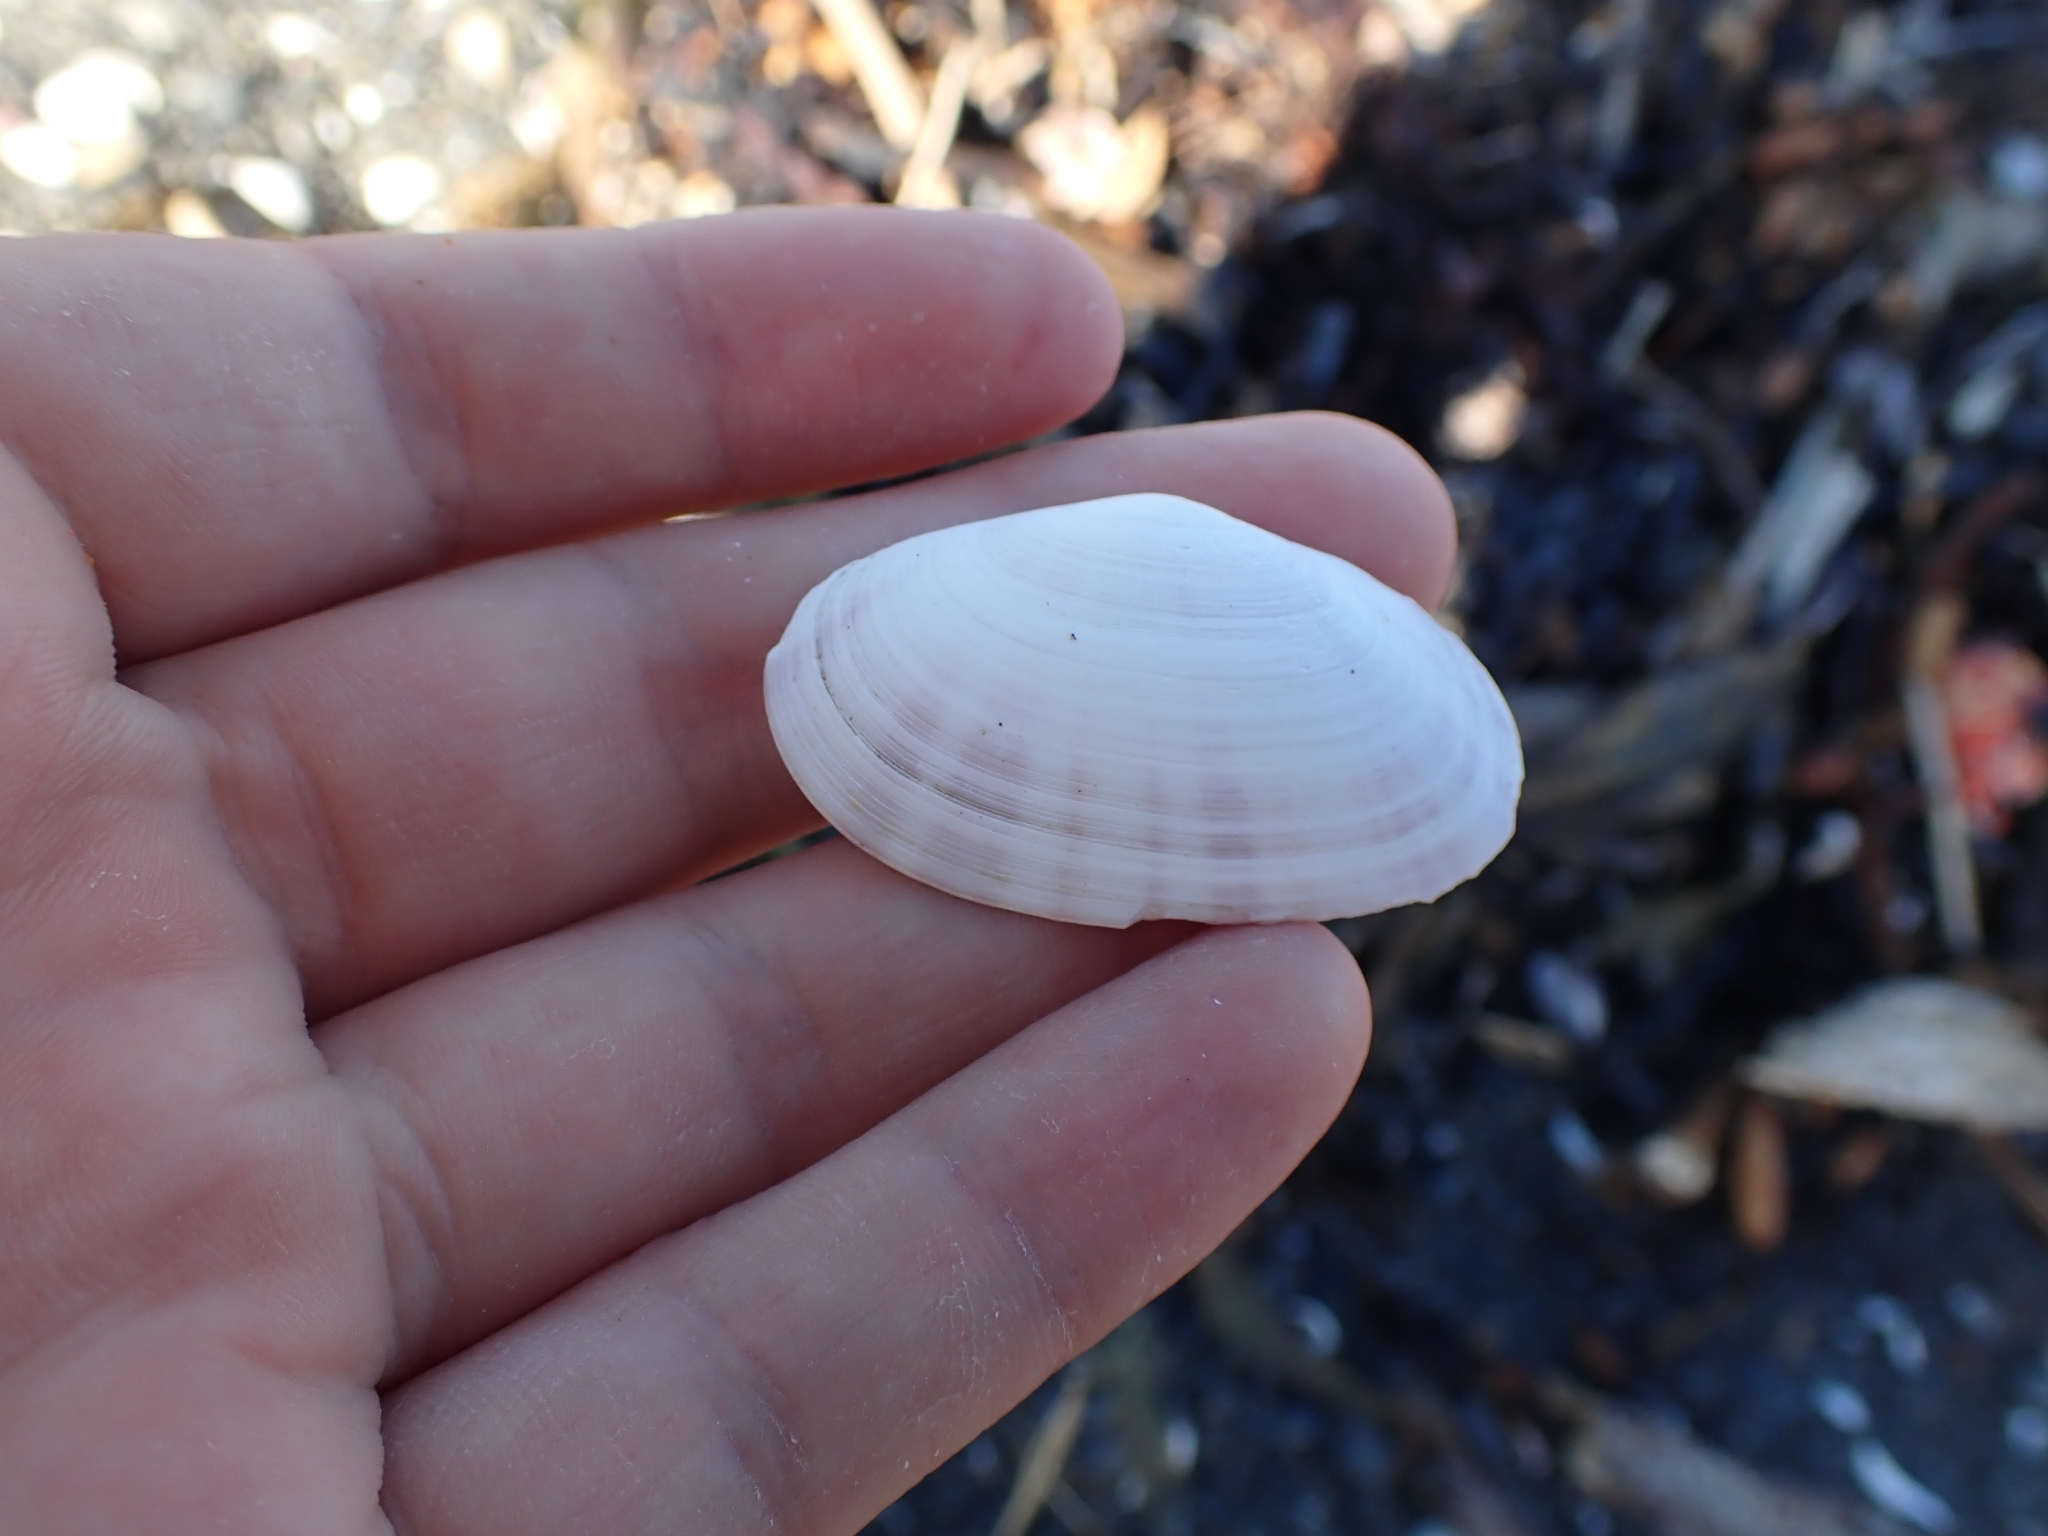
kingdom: Animalia
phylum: Mollusca
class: Bivalvia
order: Cardiida
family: Psammobiidae
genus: Gari
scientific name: Gari stangeri
